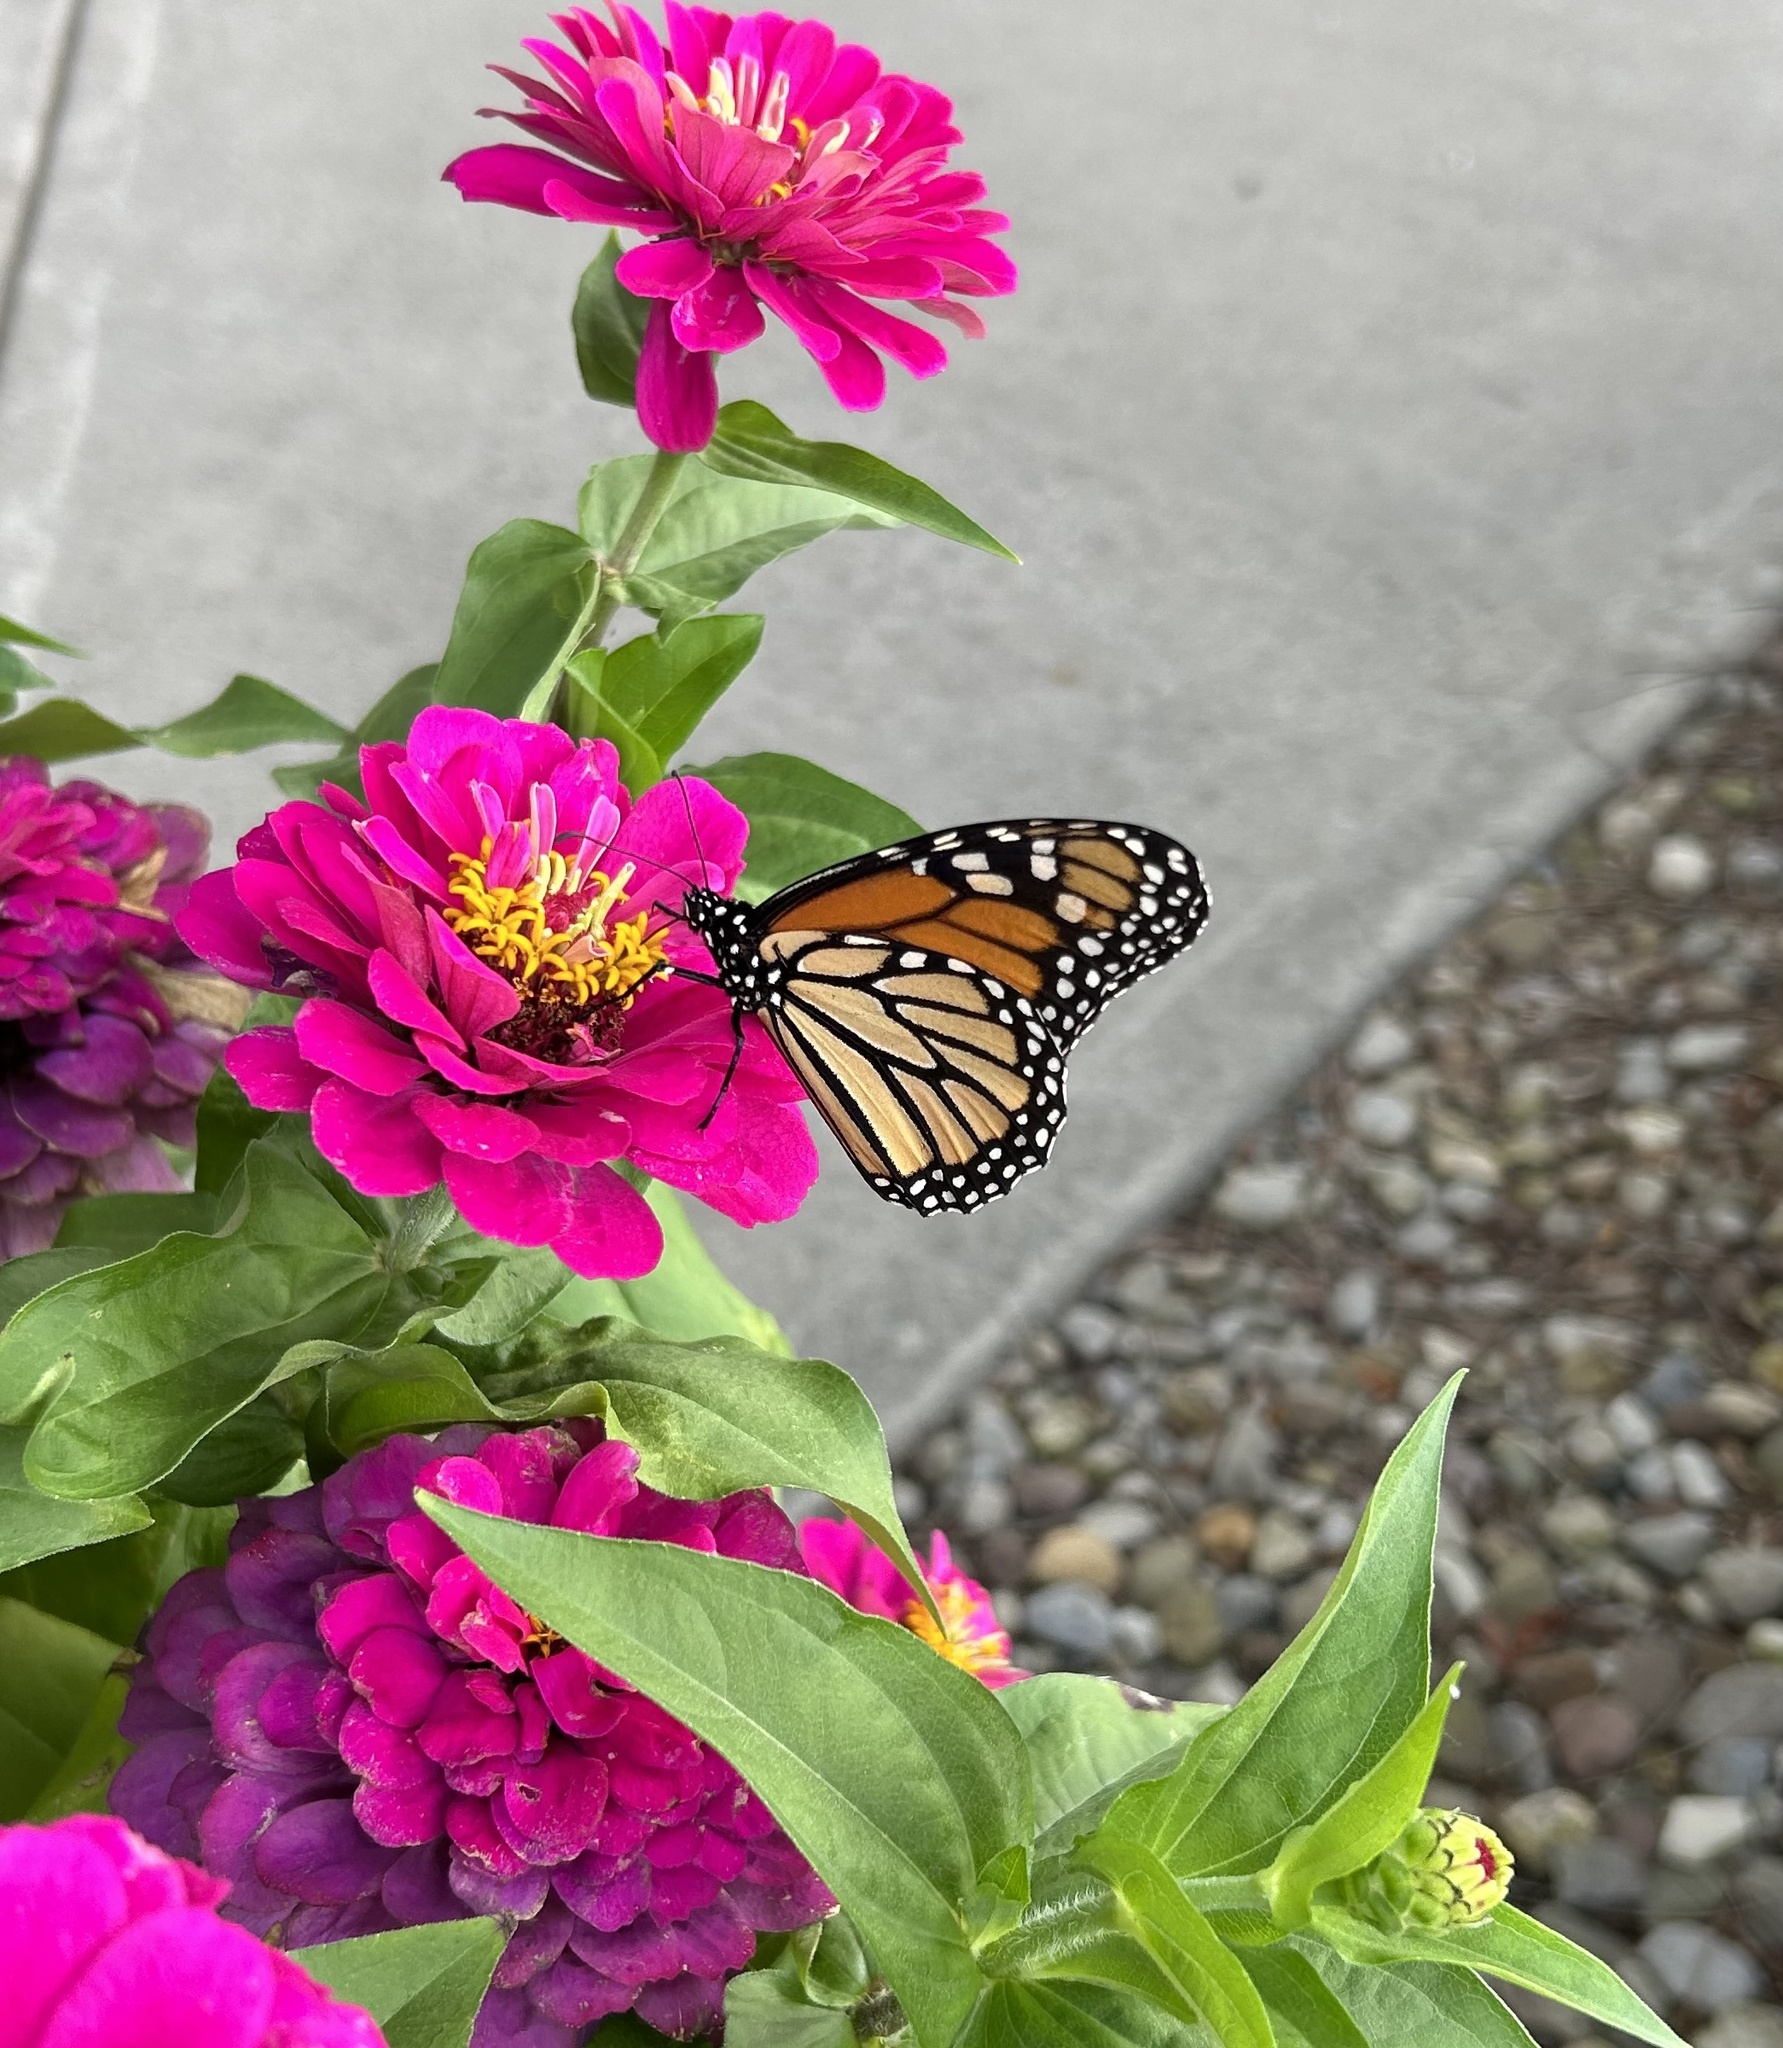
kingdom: Animalia
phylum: Arthropoda
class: Insecta
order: Lepidoptera
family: Nymphalidae
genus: Danaus
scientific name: Danaus plexippus
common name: Monarch
